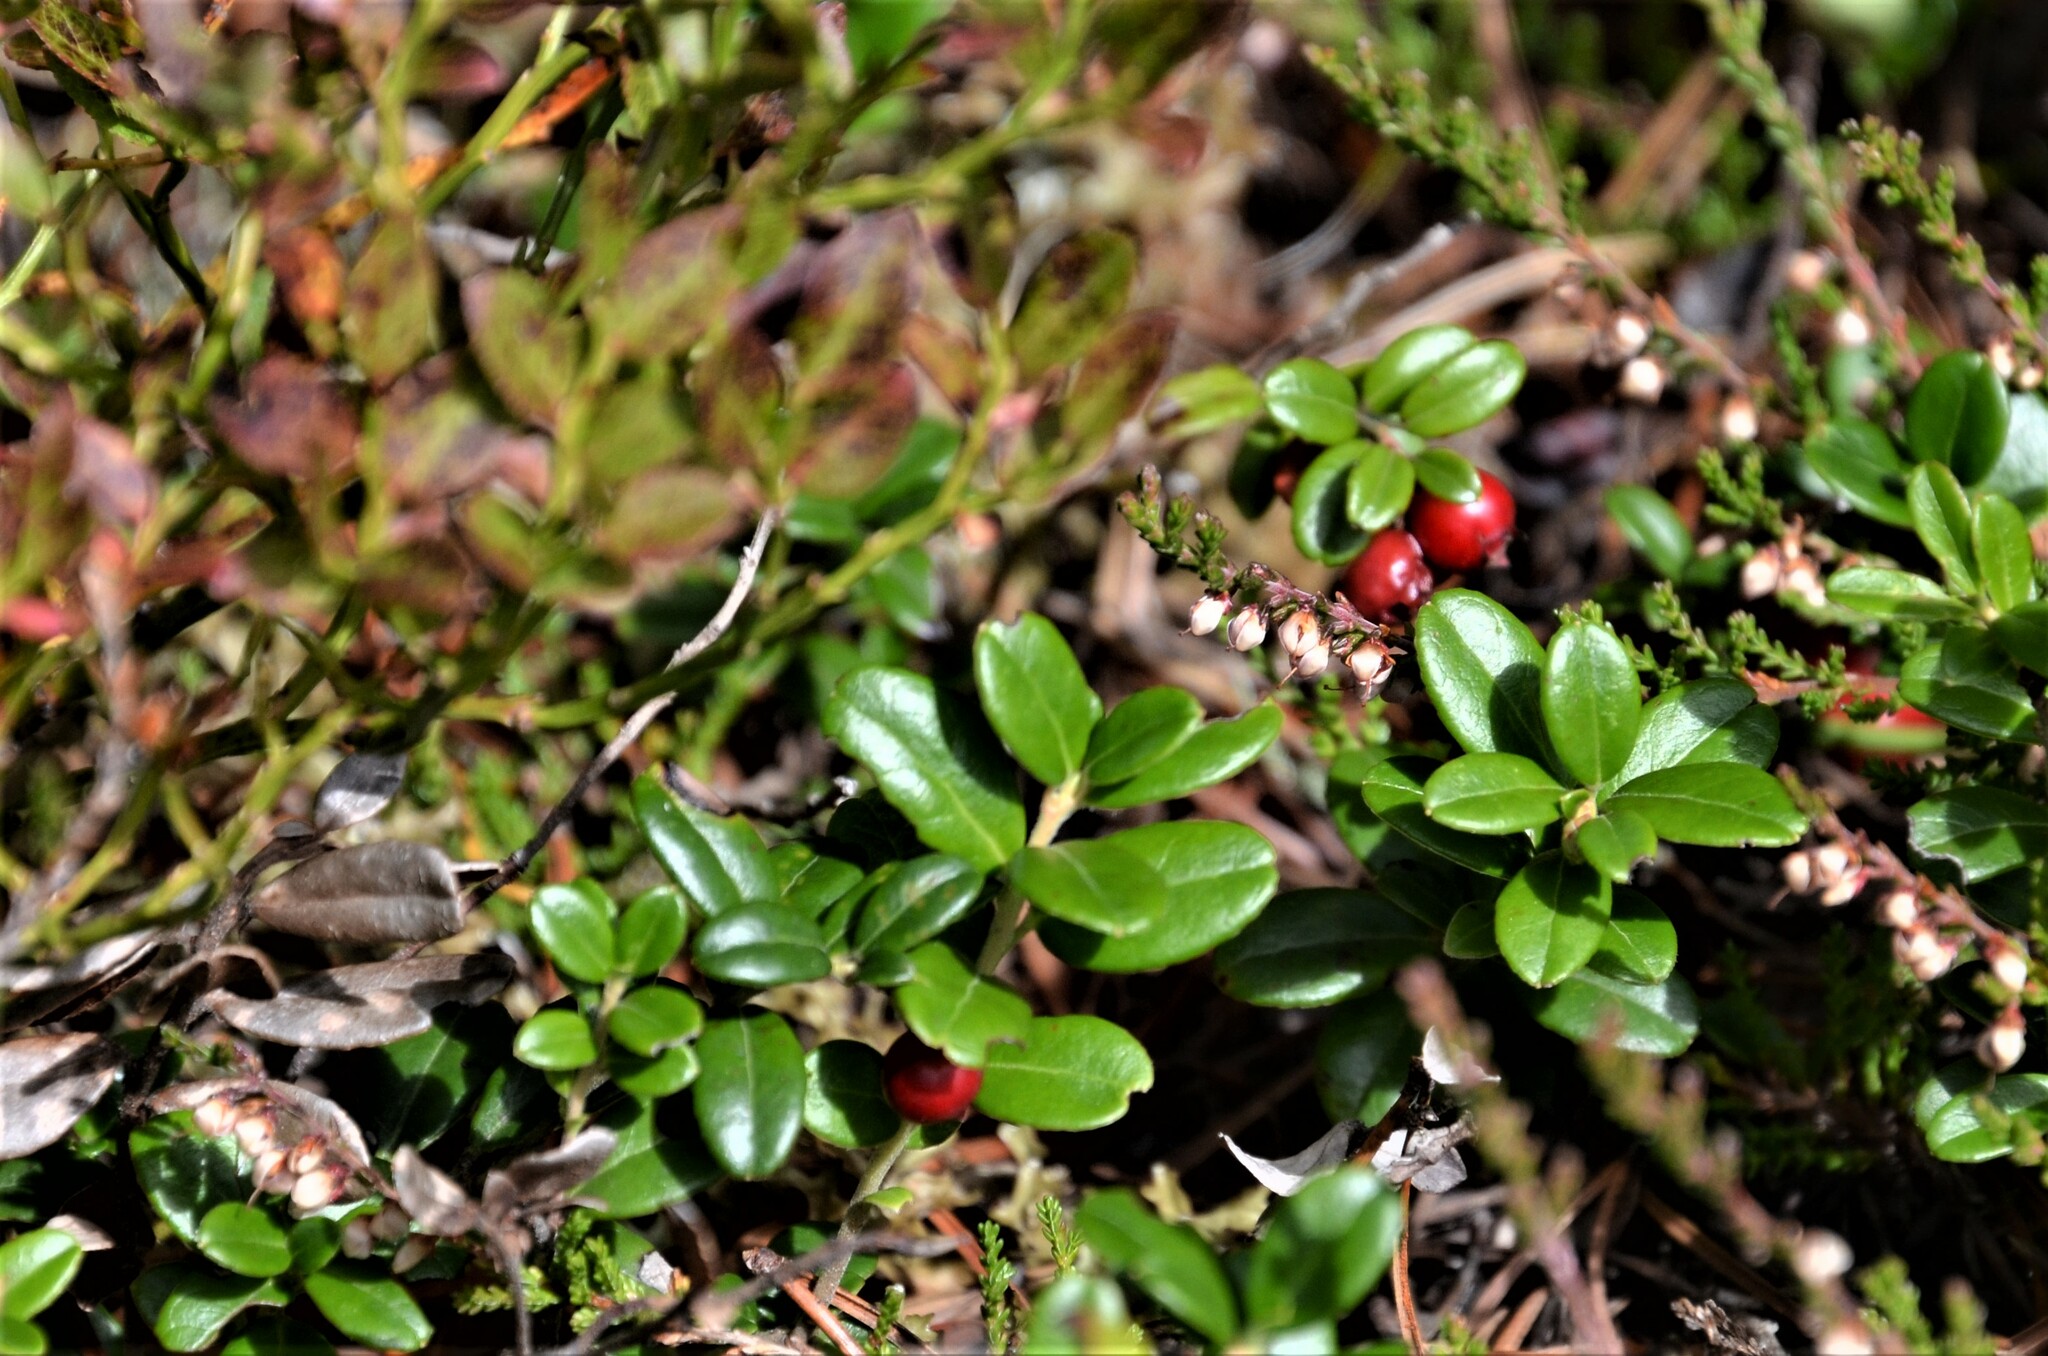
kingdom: Plantae
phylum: Tracheophyta
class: Magnoliopsida
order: Ericales
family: Ericaceae
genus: Vaccinium
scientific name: Vaccinium vitis-idaea
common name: Cowberry
